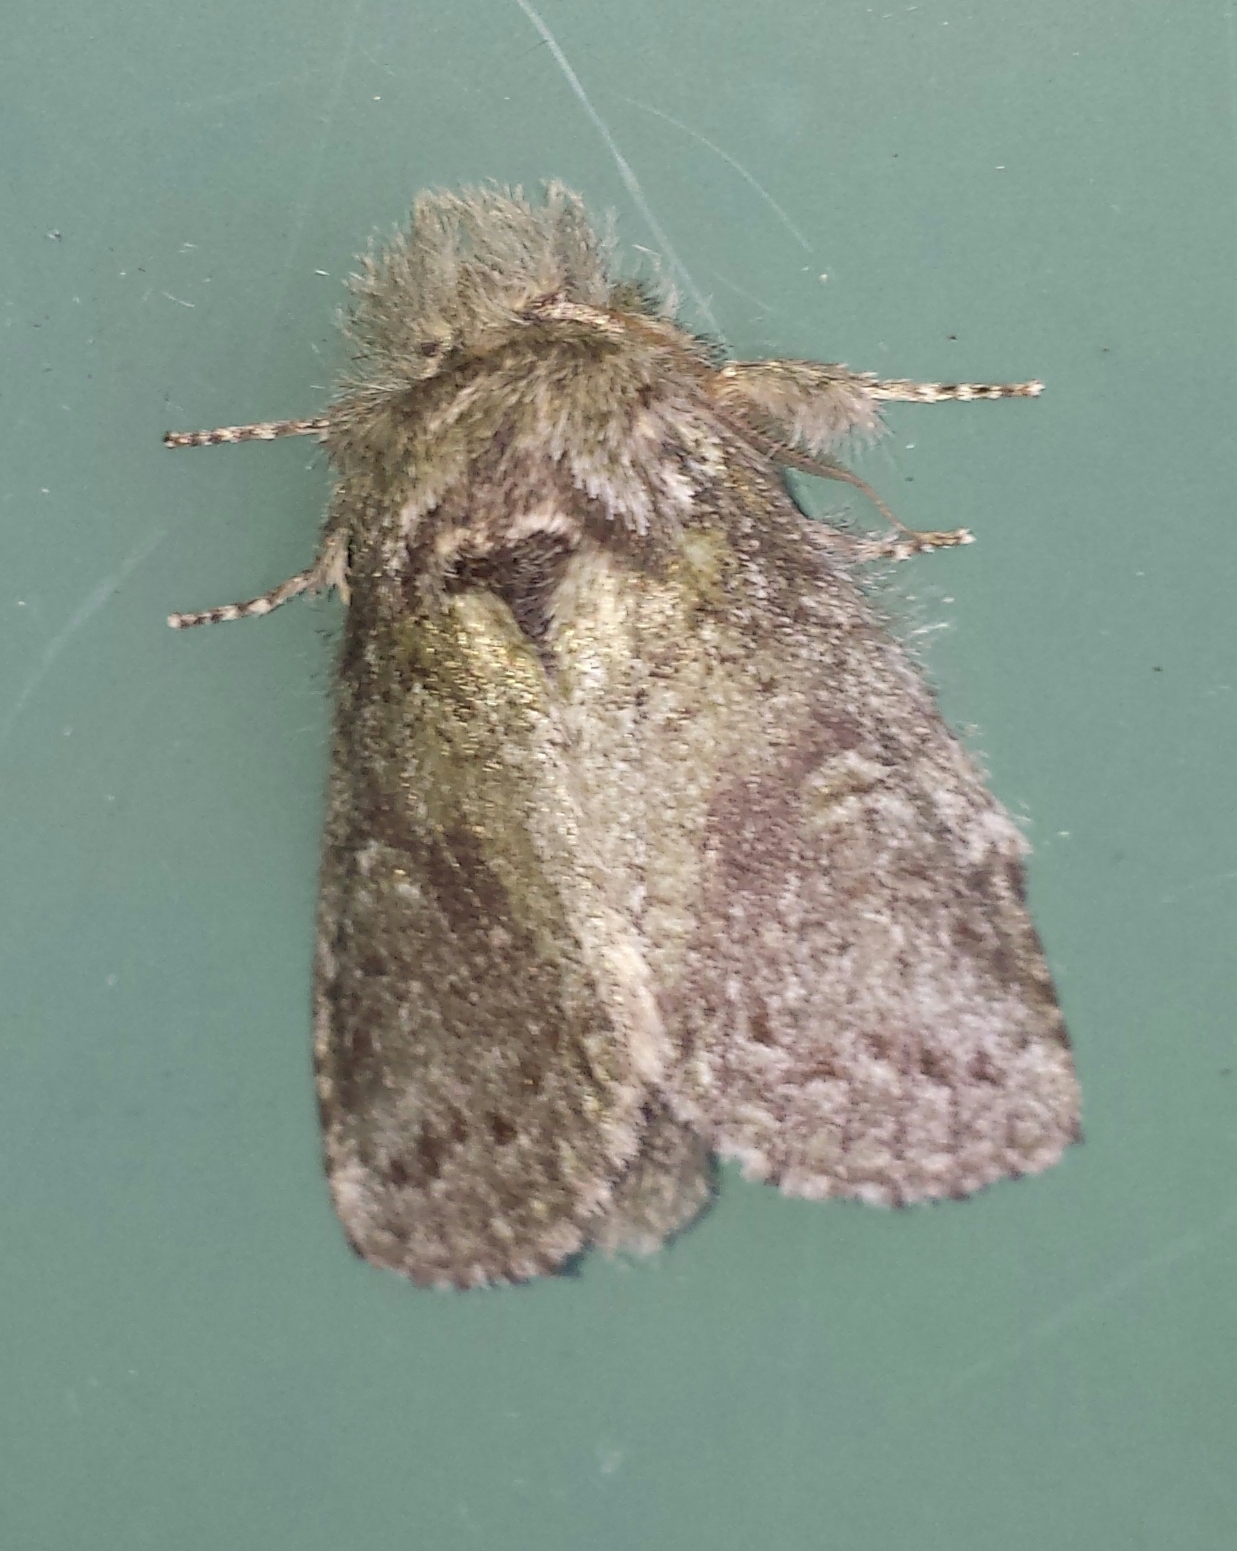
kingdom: Animalia
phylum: Arthropoda
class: Insecta
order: Lepidoptera
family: Notodontidae
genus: Disphragis
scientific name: Disphragis Cecrita guttivitta
